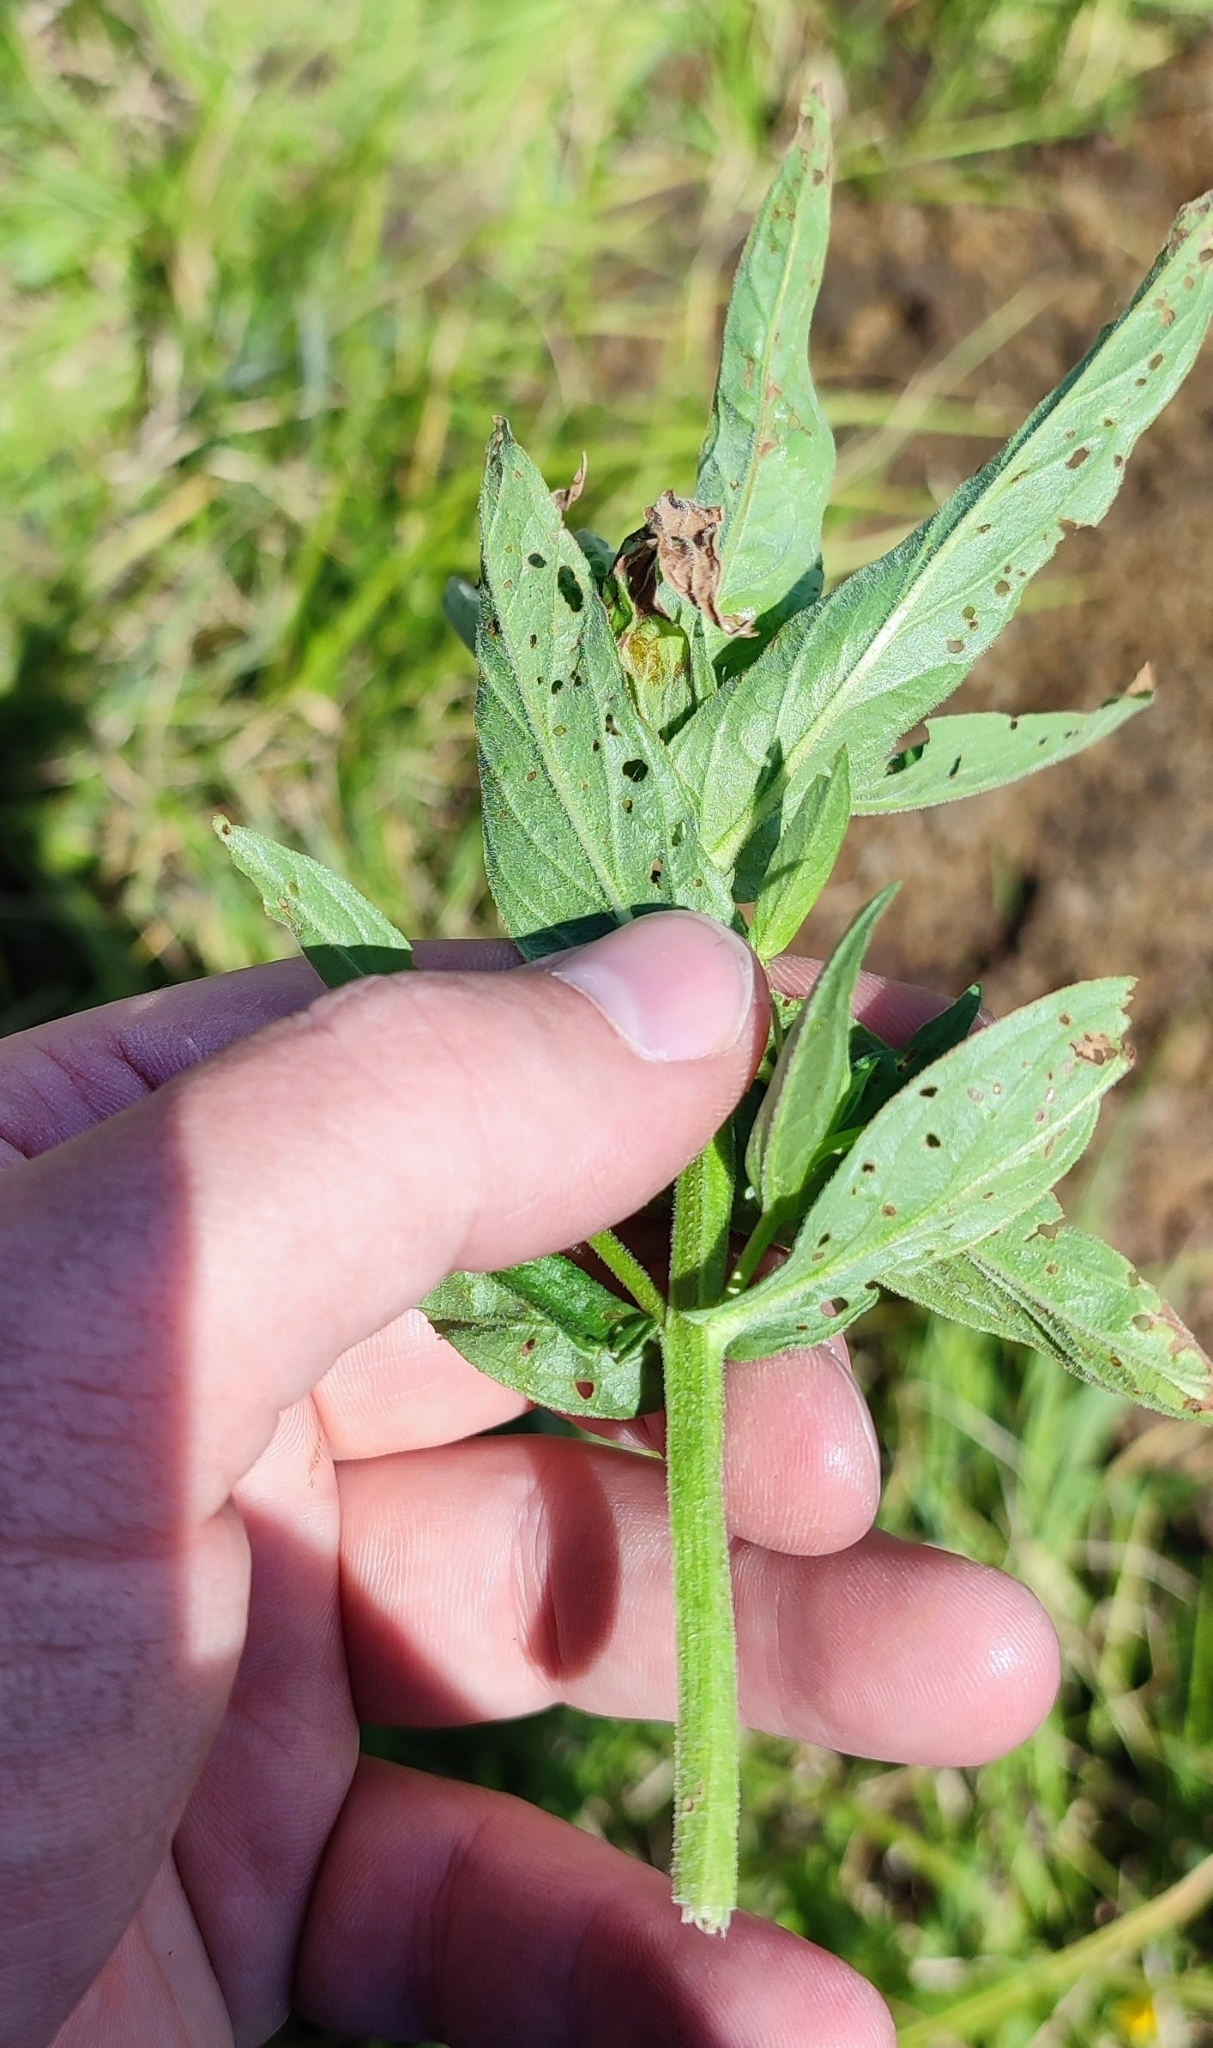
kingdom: Plantae
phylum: Tracheophyta
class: Magnoliopsida
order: Myrtales
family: Lythraceae
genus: Lythrum
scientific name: Lythrum salicaria
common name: Purple loosestrife
